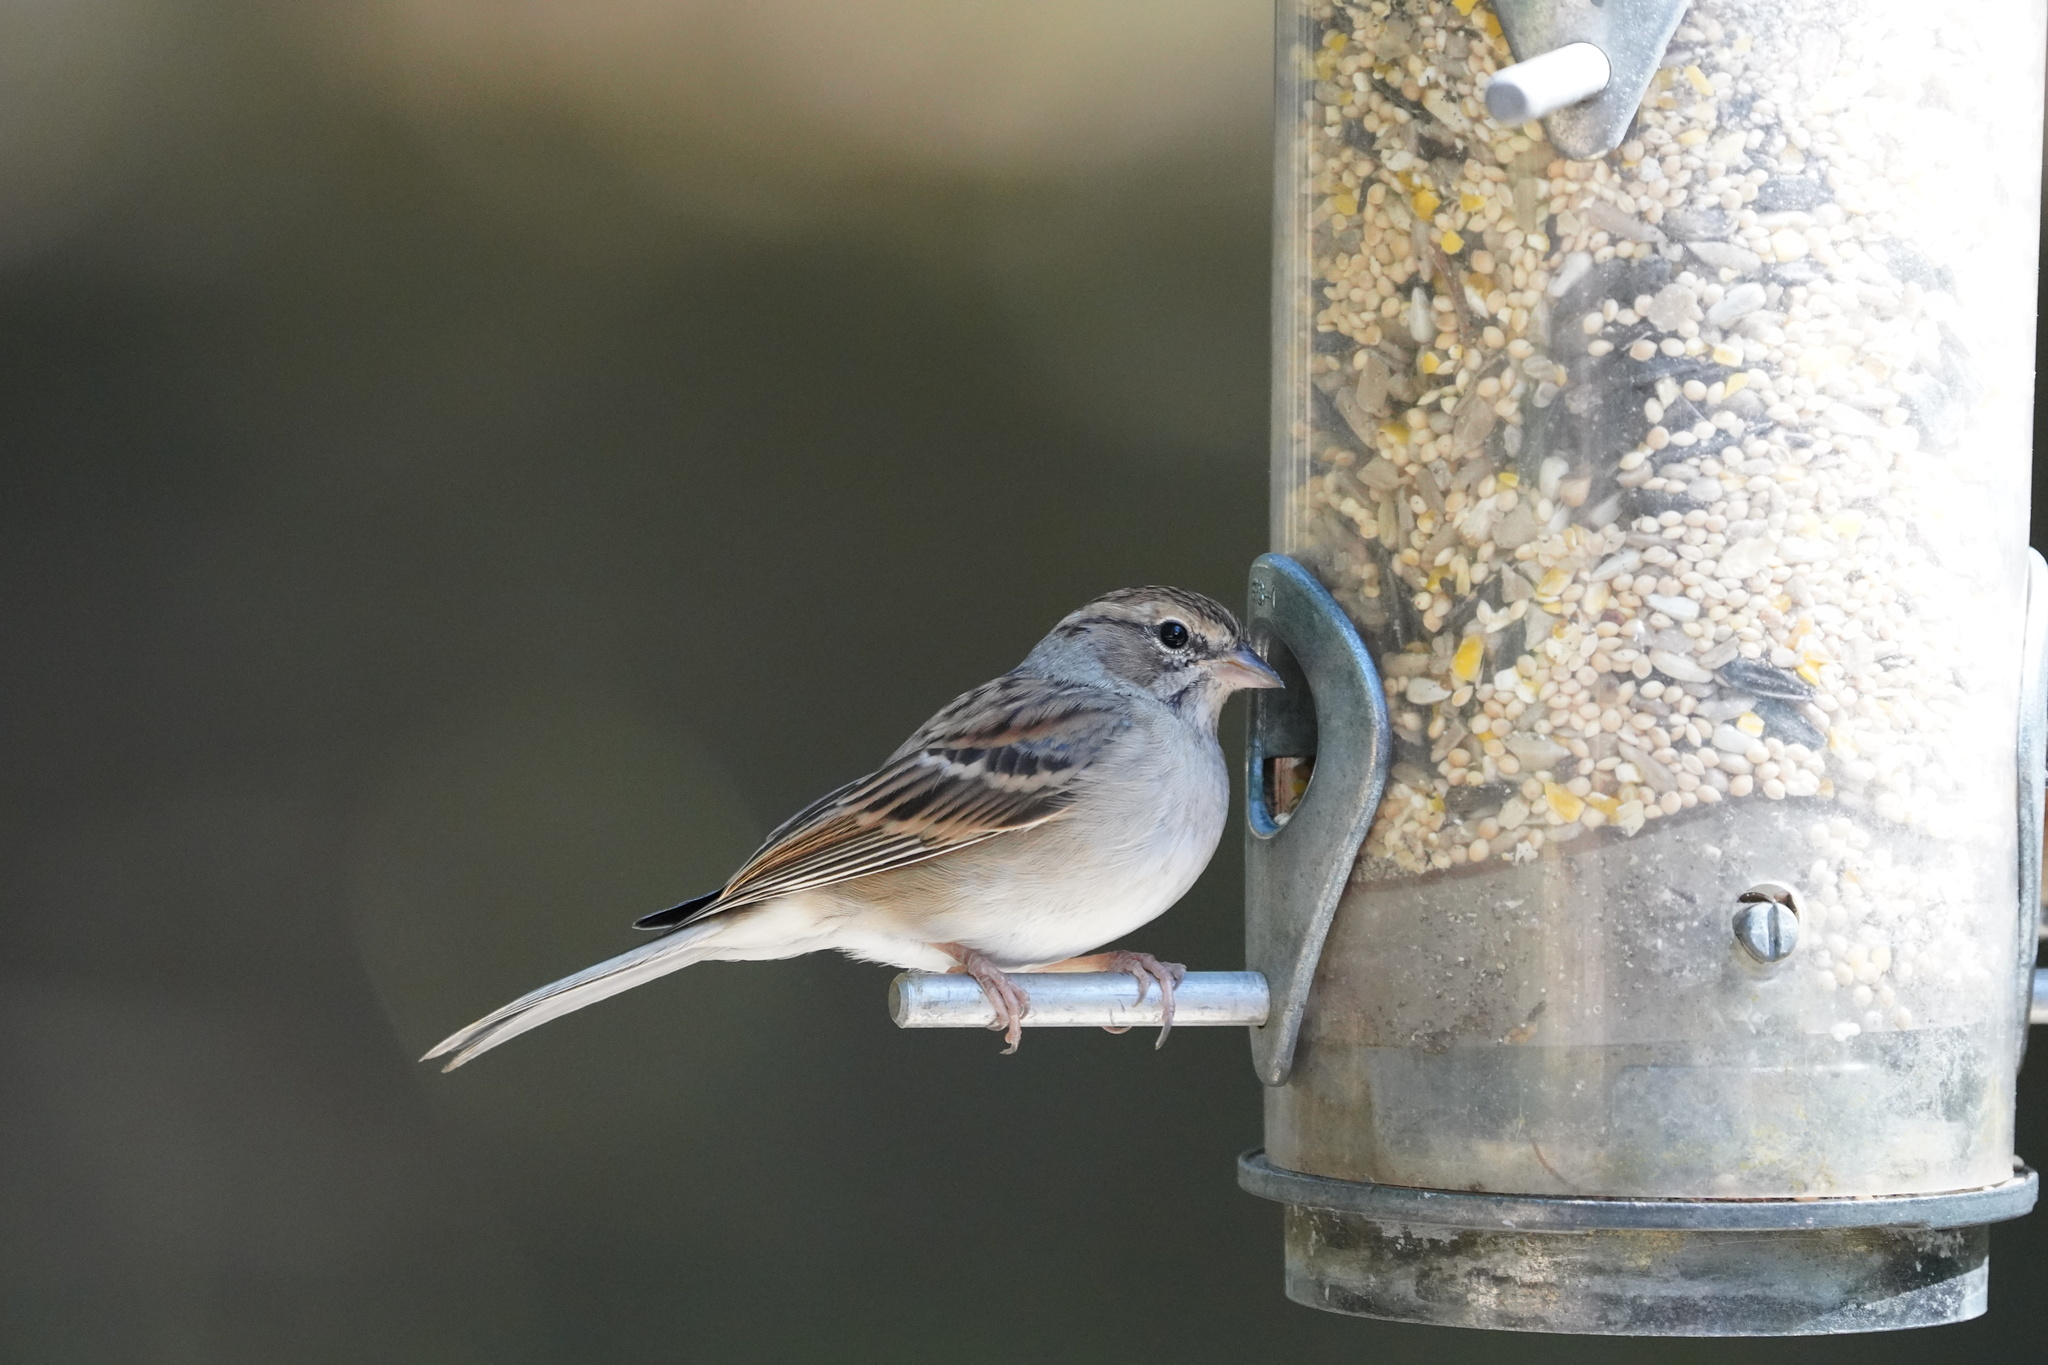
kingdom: Animalia
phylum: Chordata
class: Aves
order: Passeriformes
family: Passerellidae
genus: Spizella
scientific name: Spizella passerina
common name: Chipping sparrow
